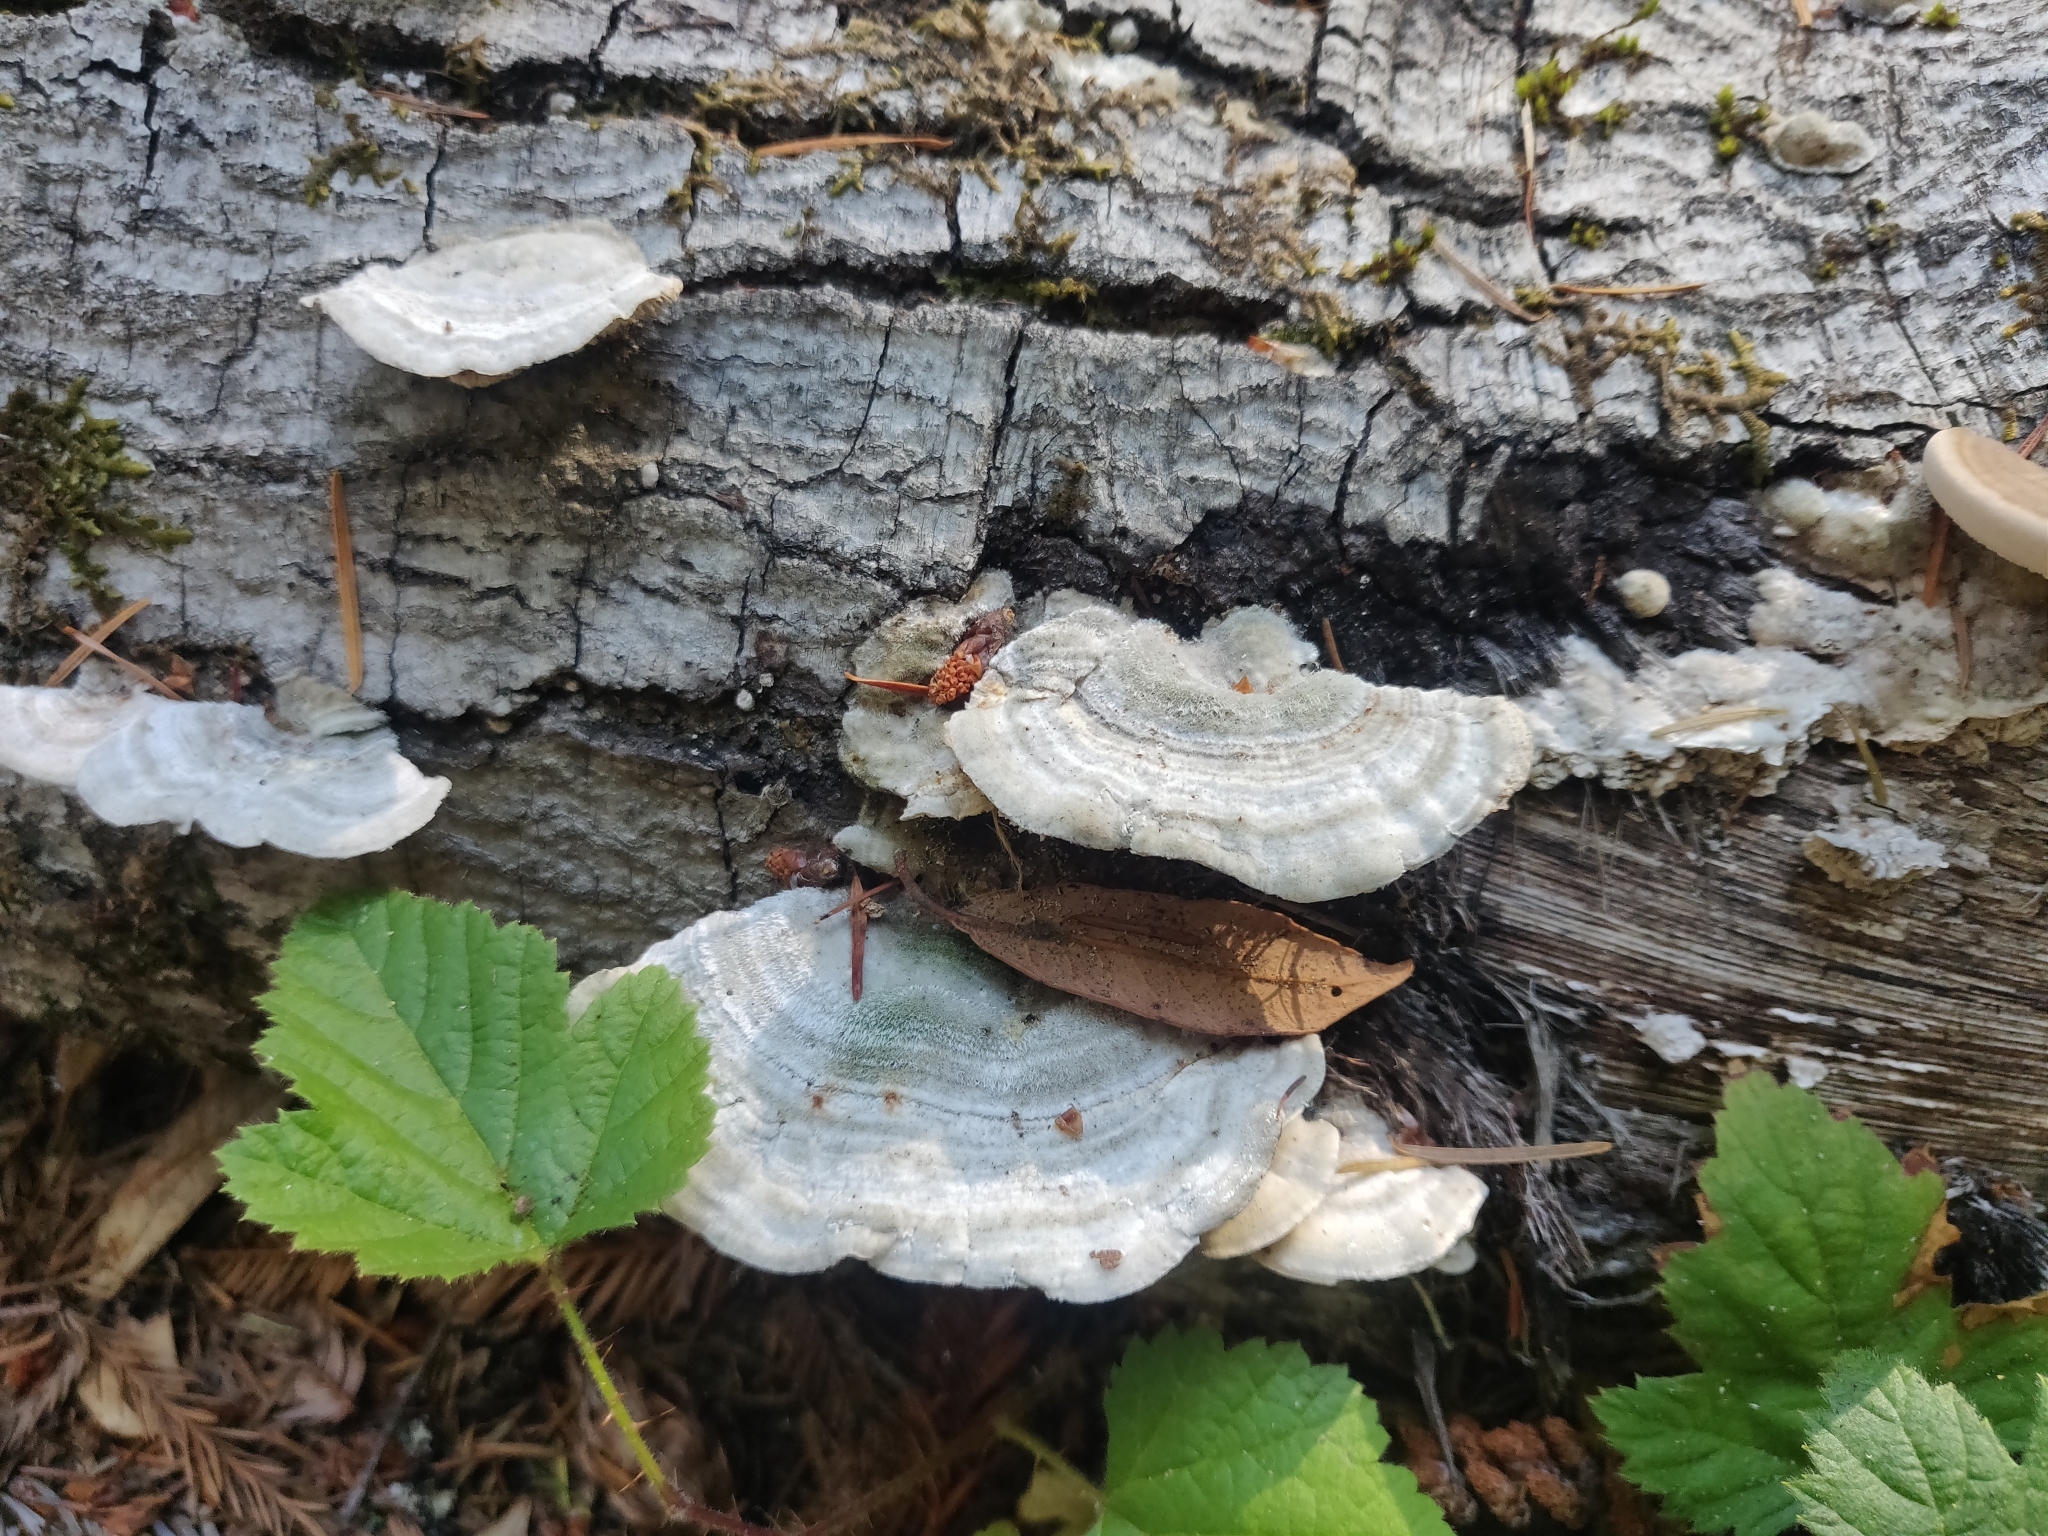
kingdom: Fungi
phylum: Basidiomycota
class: Agaricomycetes
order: Polyporales
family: Polyporaceae
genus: Lenzites
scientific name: Lenzites betulinus
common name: Birch mazegill
